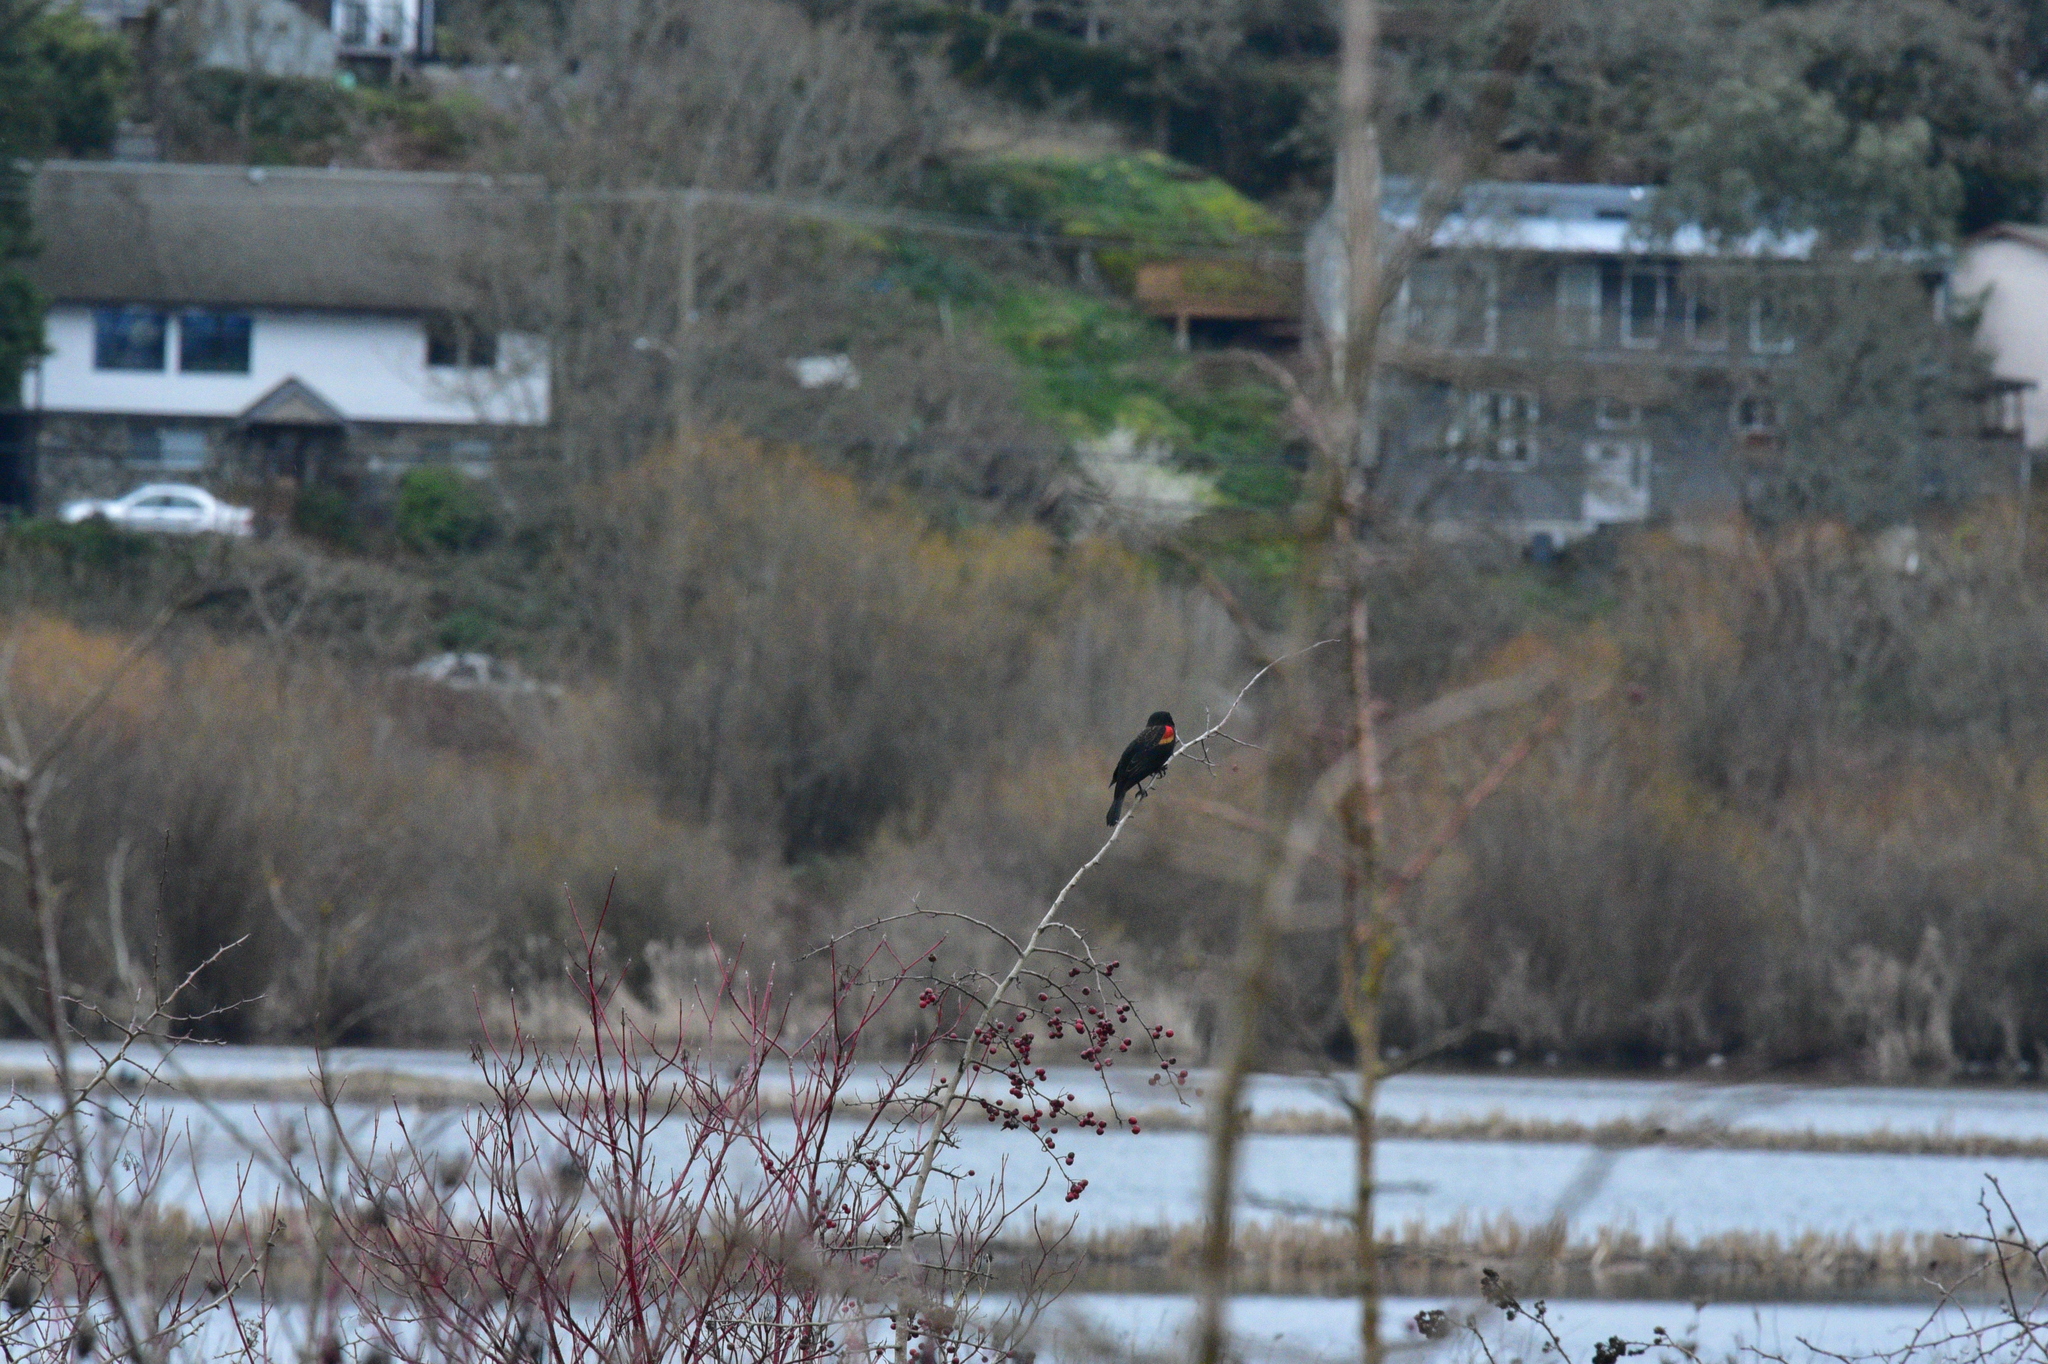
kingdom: Animalia
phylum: Chordata
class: Aves
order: Passeriformes
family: Icteridae
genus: Agelaius
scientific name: Agelaius phoeniceus
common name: Red-winged blackbird
